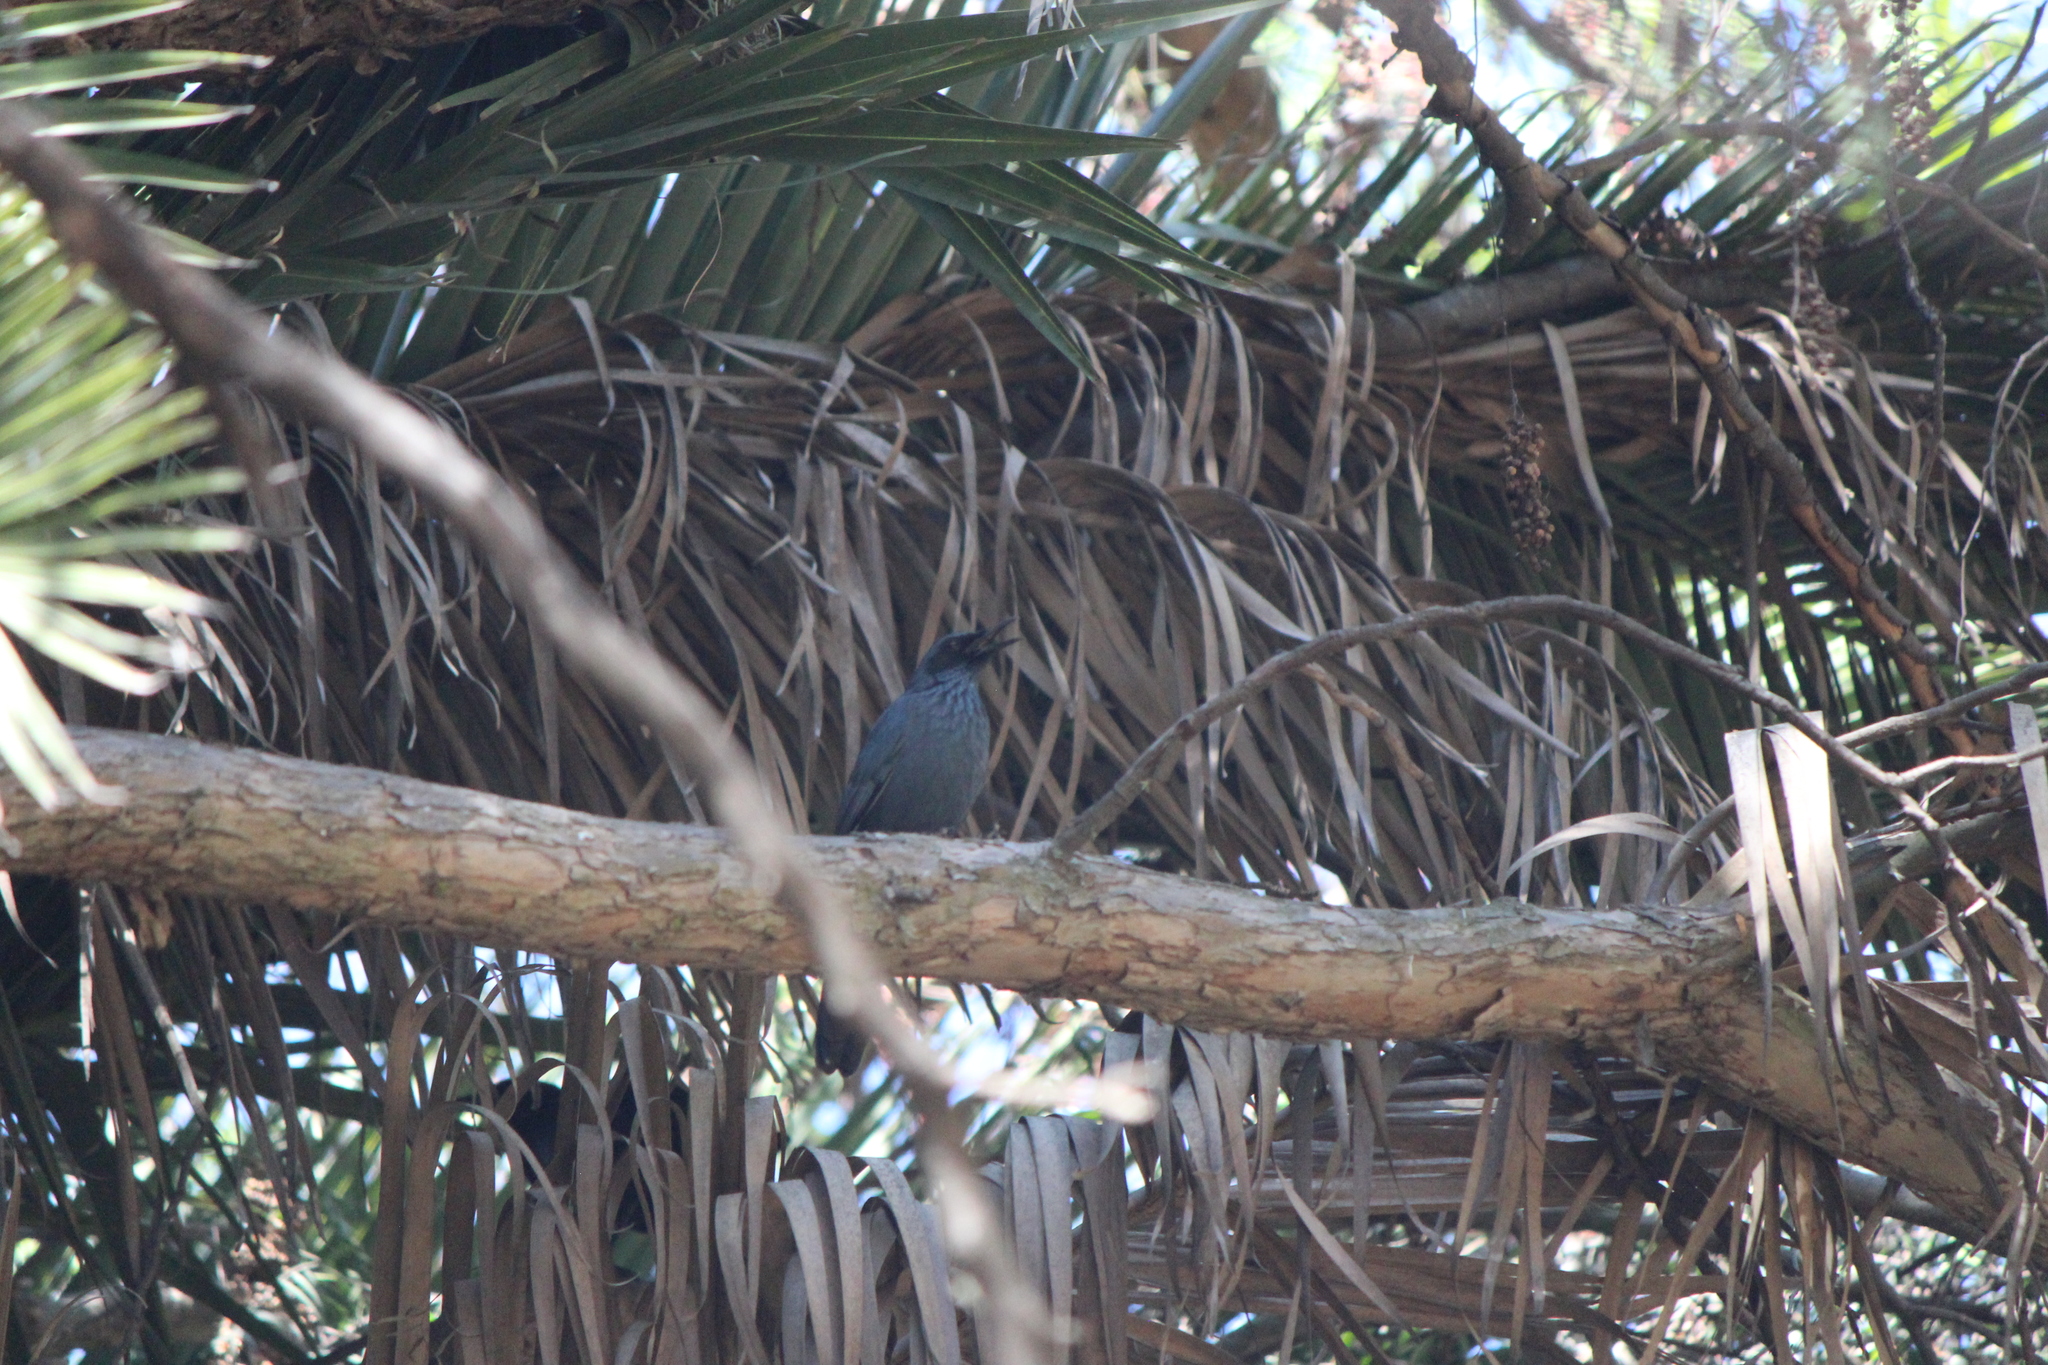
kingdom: Animalia
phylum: Chordata
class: Aves
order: Passeriformes
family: Mimidae
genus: Melanotis
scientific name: Melanotis caerulescens
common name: Blue mockingbird
